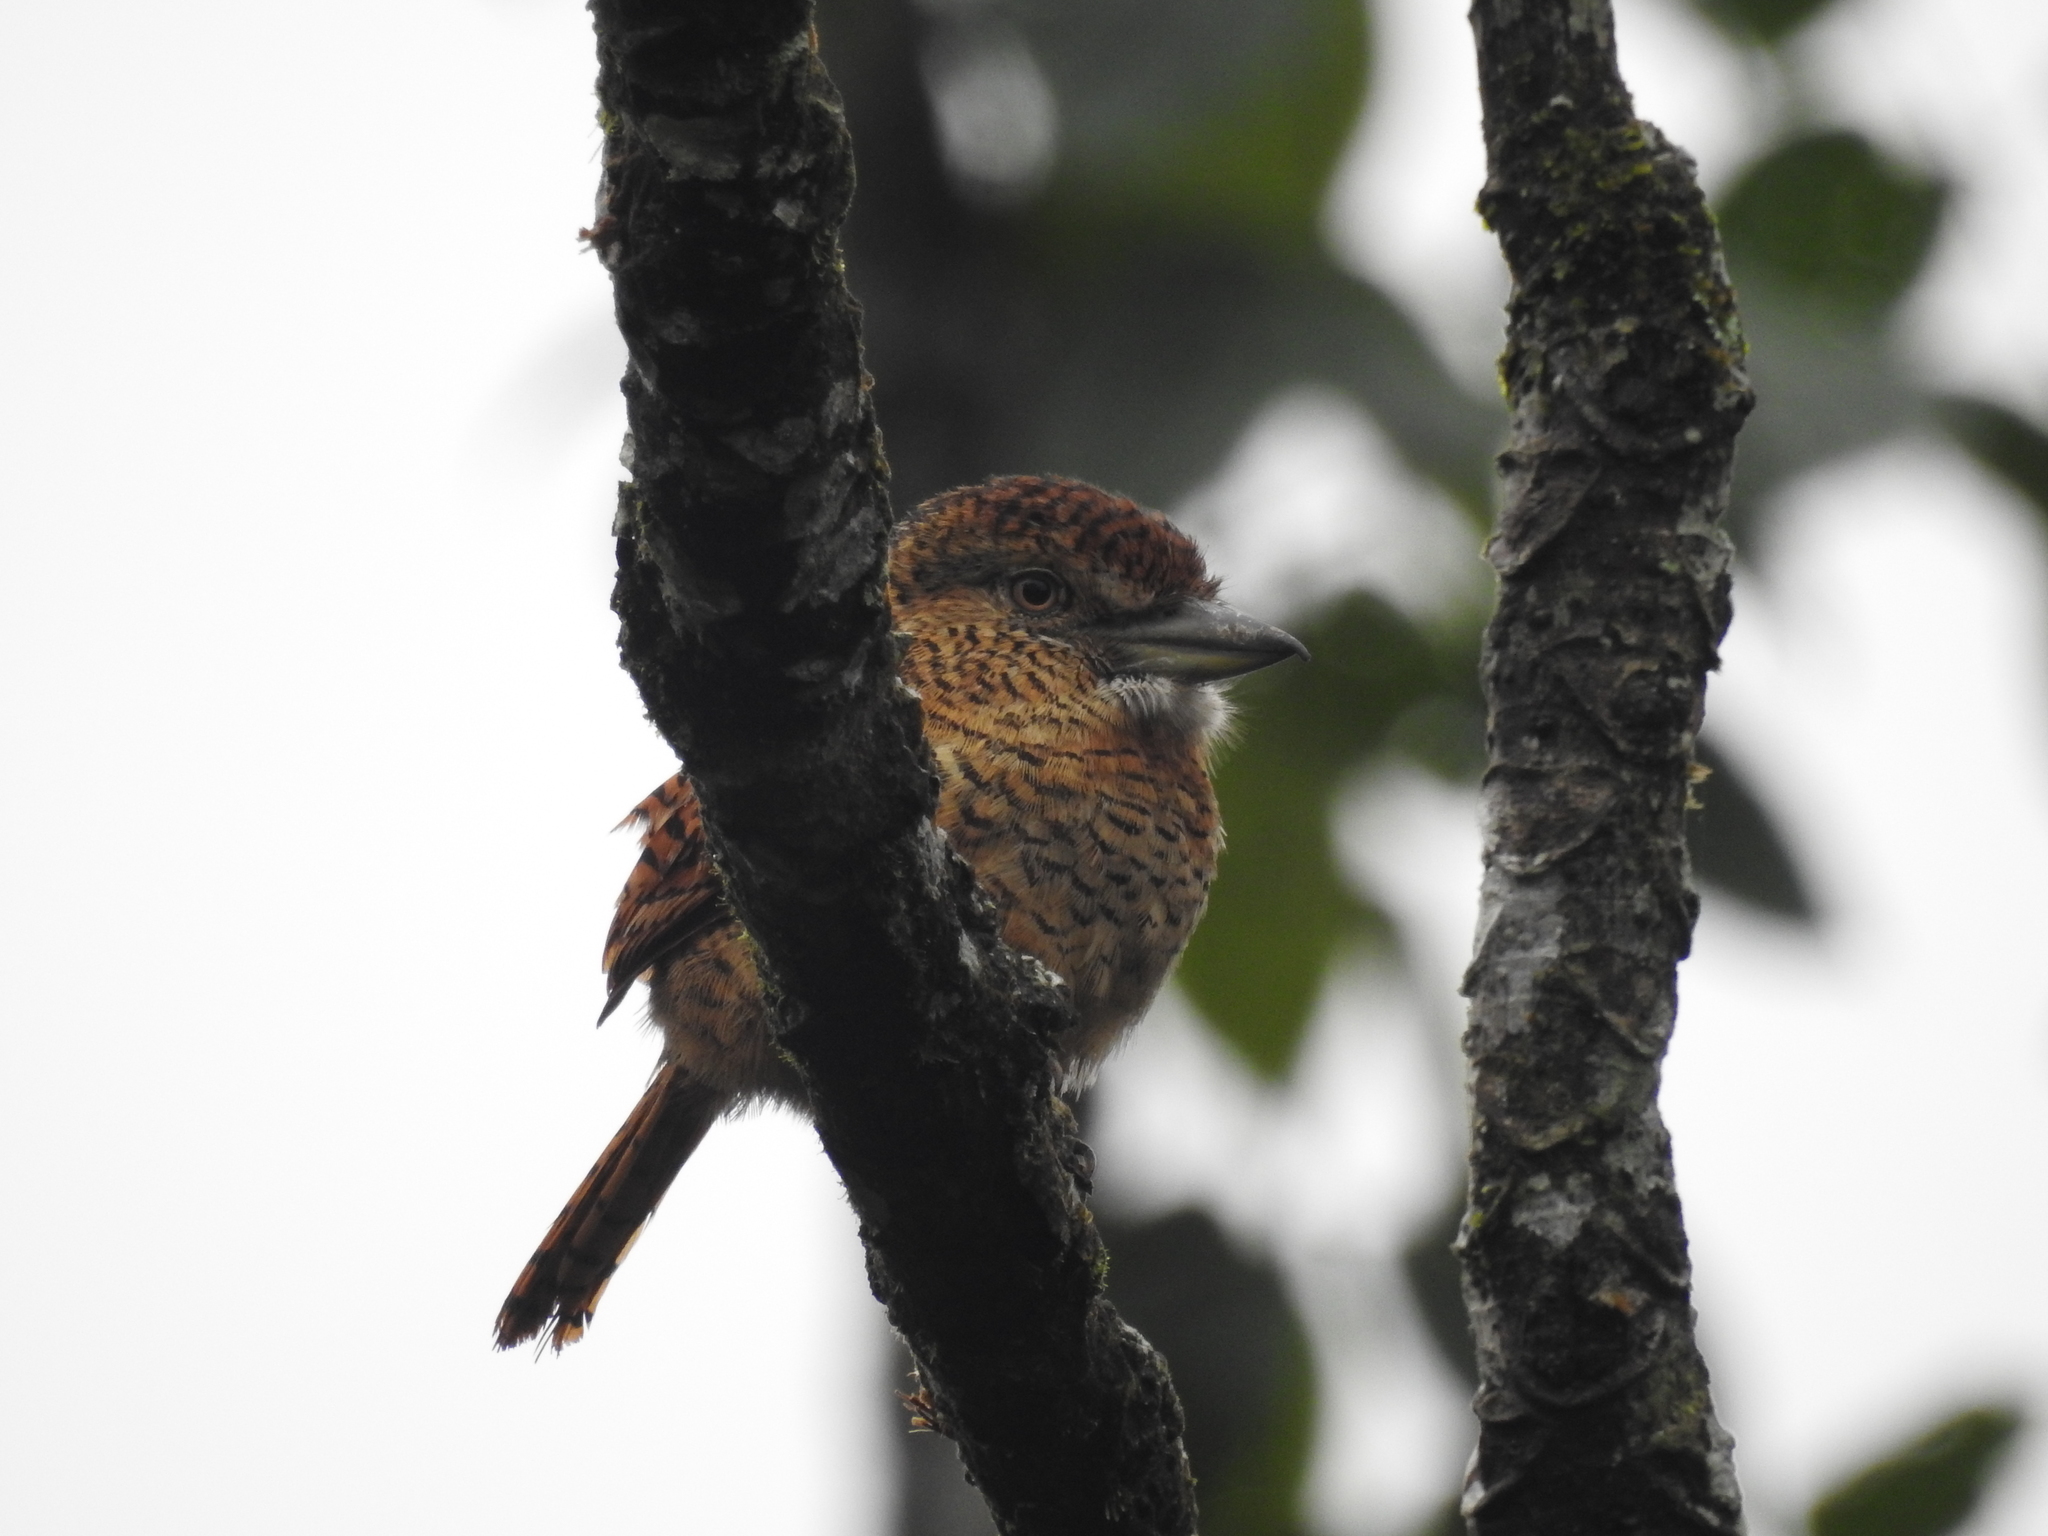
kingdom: Animalia
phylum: Chordata
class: Aves
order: Piciformes
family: Bucconidae
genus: Nystalus
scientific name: Nystalus radiatus
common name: Barred puffbird
